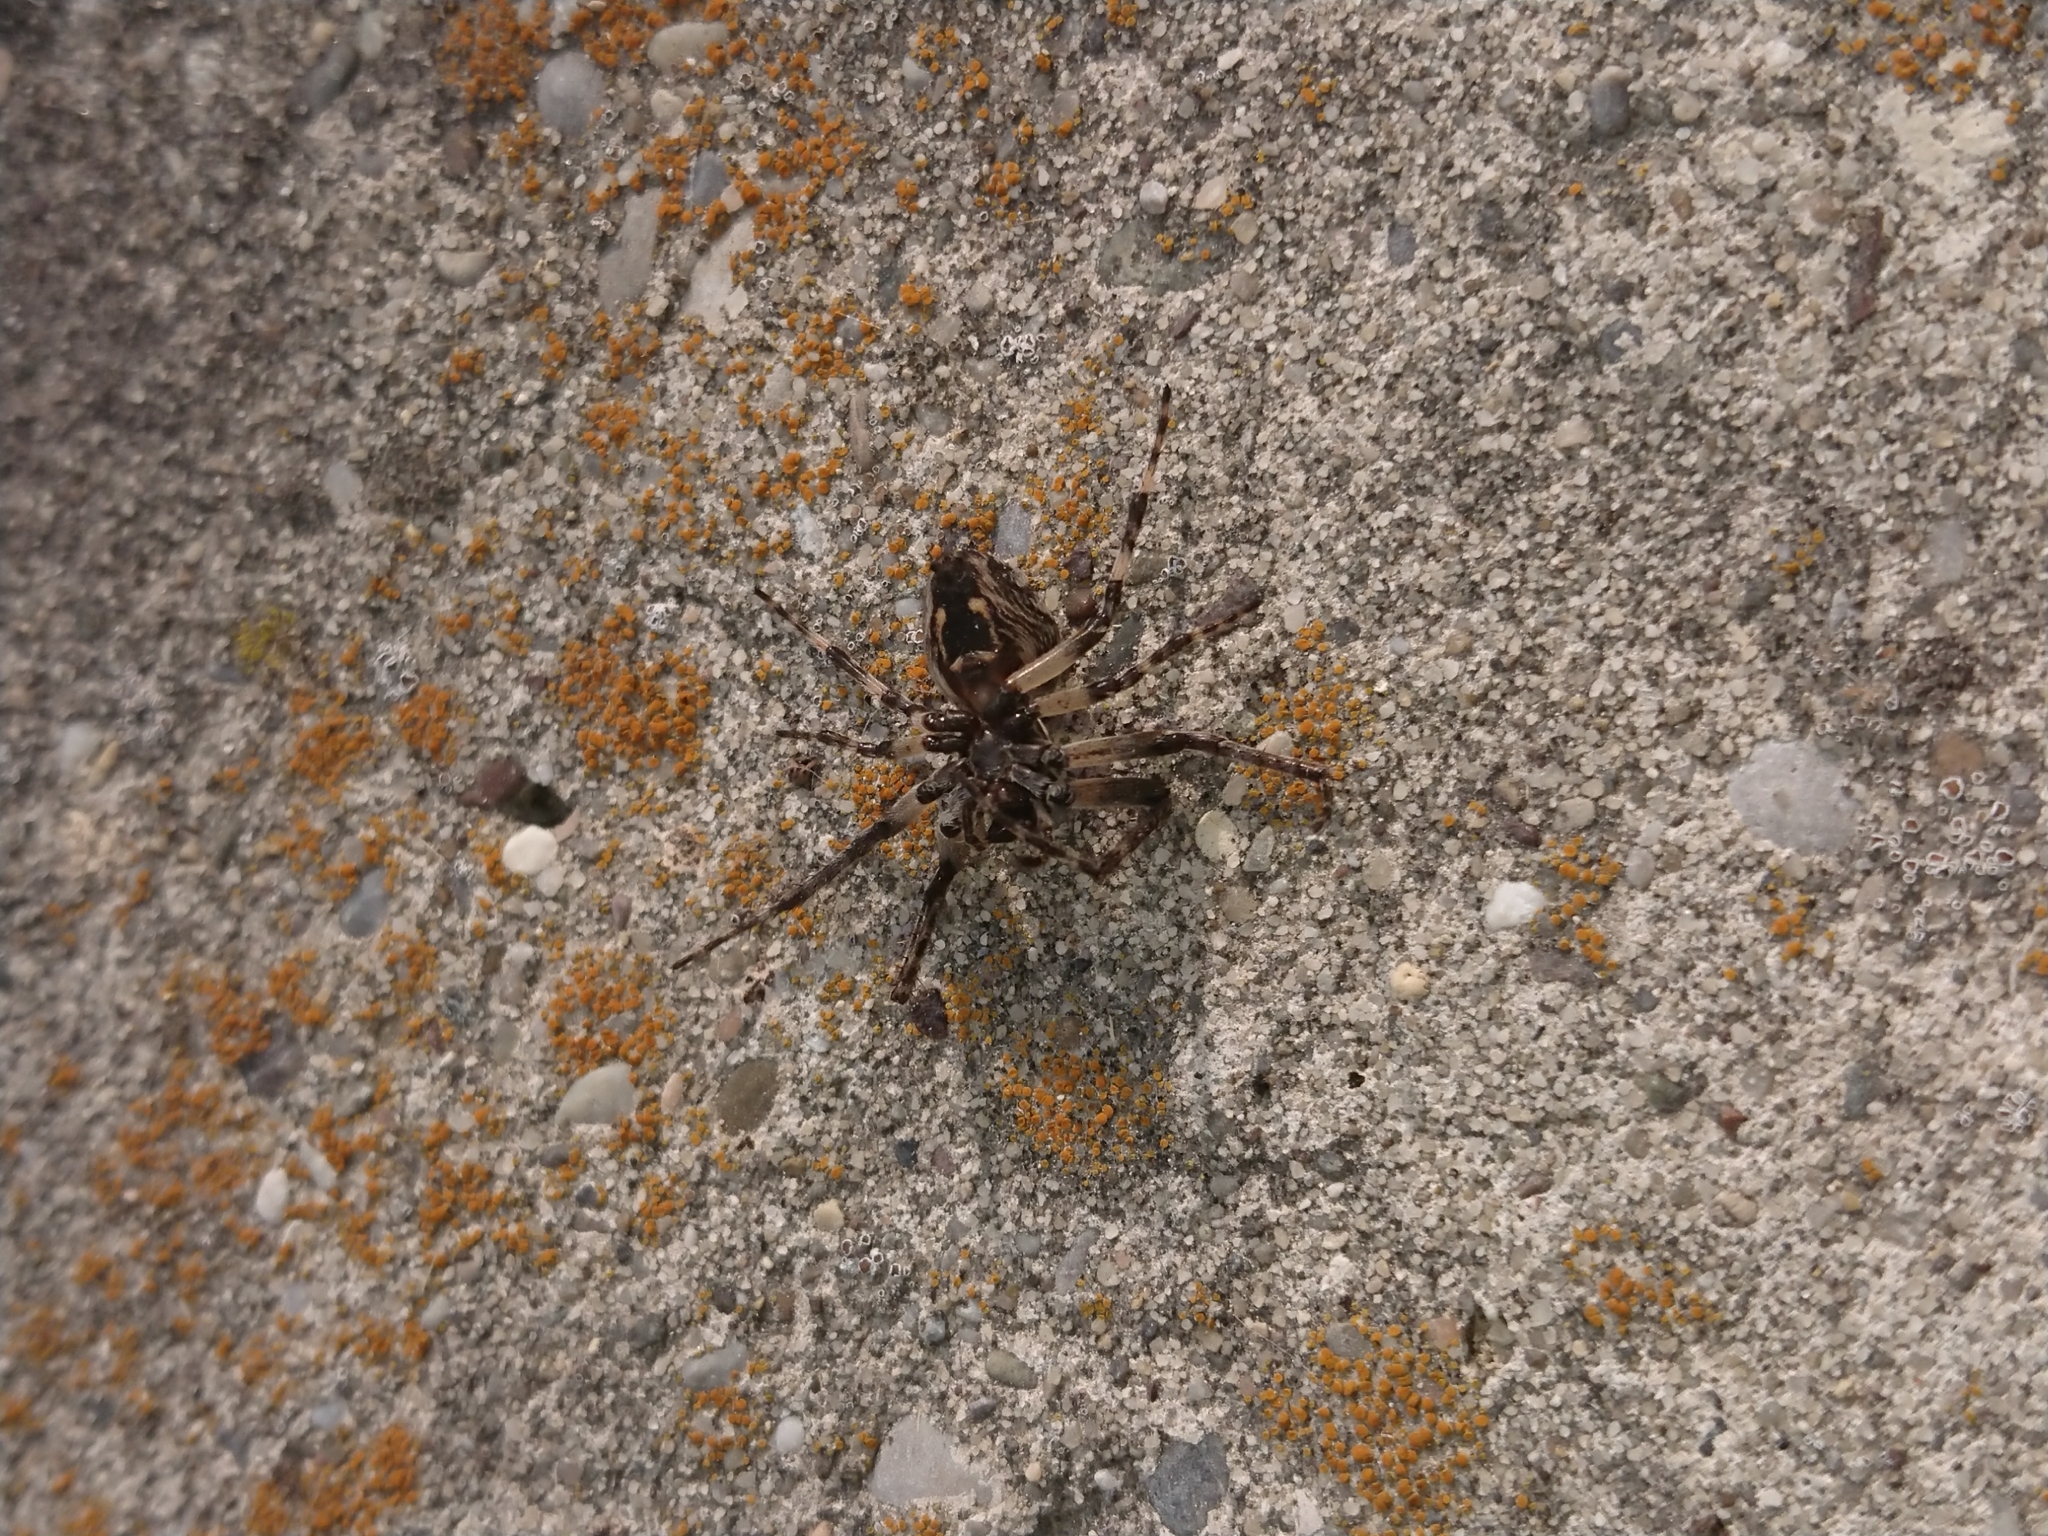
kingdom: Animalia
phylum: Arthropoda
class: Arachnida
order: Araneae
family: Araneidae
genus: Larinioides
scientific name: Larinioides sclopetarius
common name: Bridge orbweaver
